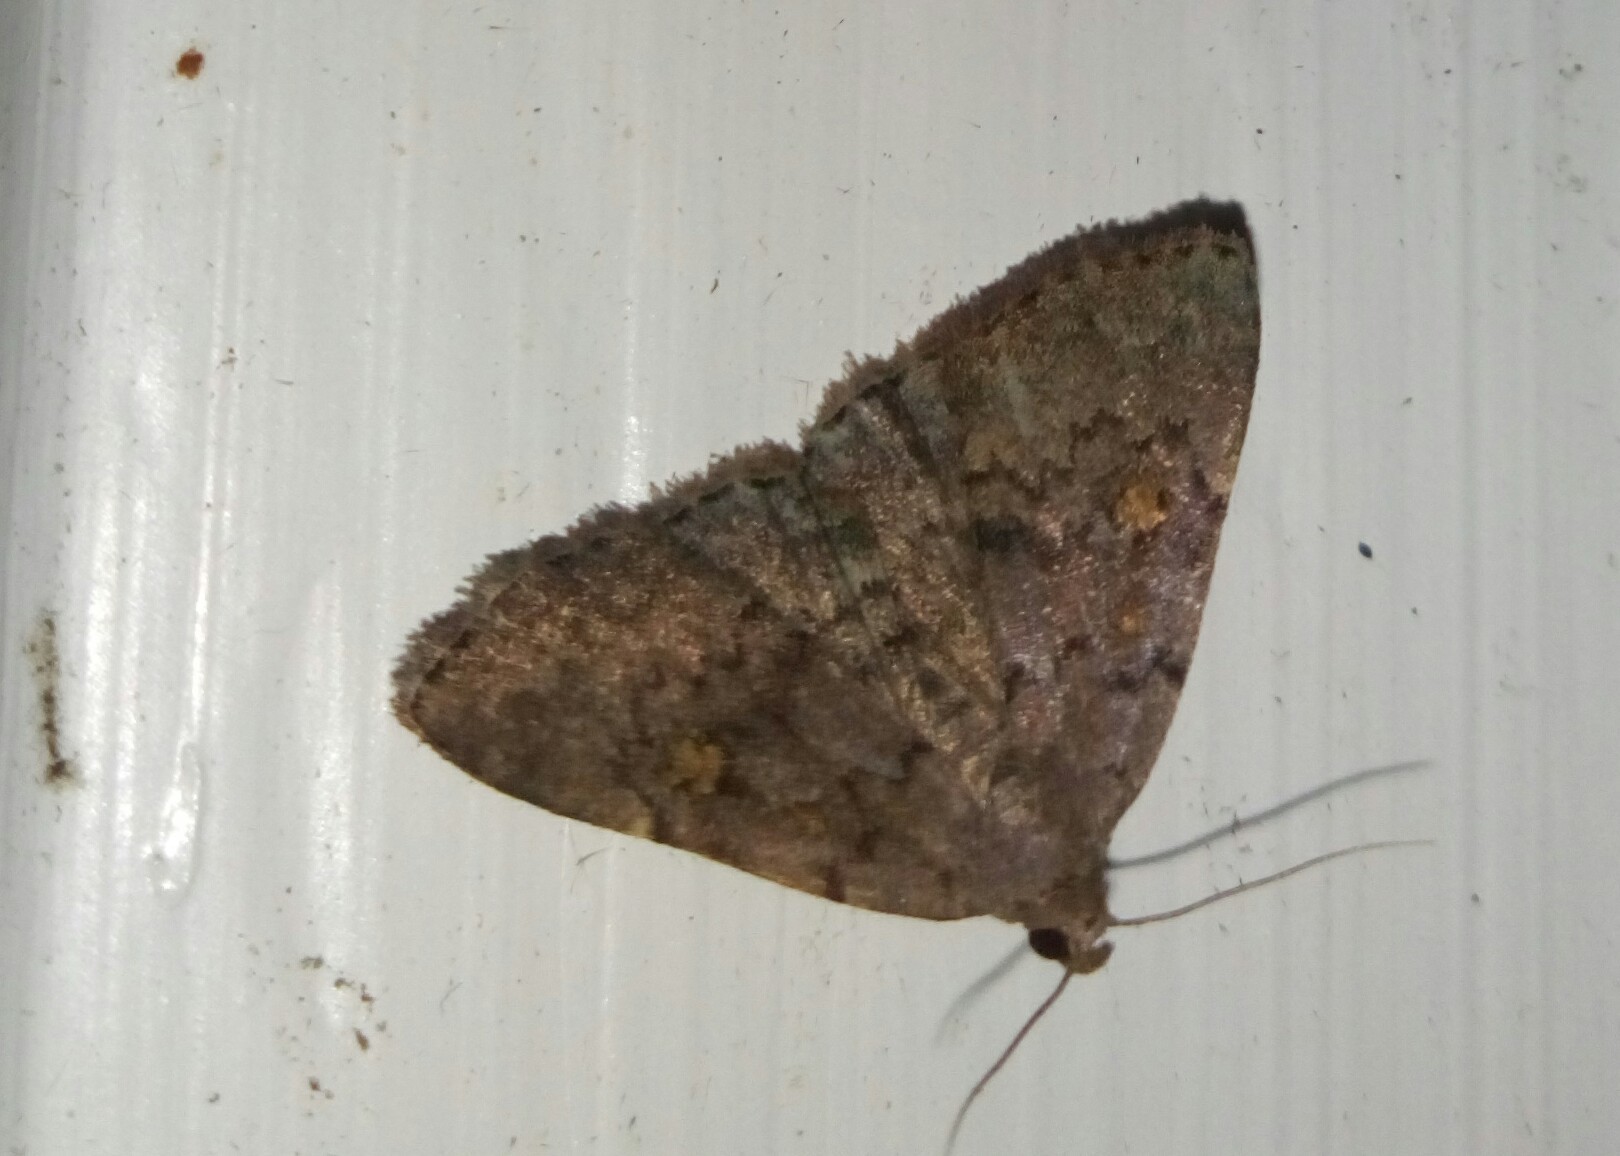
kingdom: Animalia
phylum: Arthropoda
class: Insecta
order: Lepidoptera
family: Erebidae
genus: Idia
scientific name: Idia aemula
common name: Common idia moth
